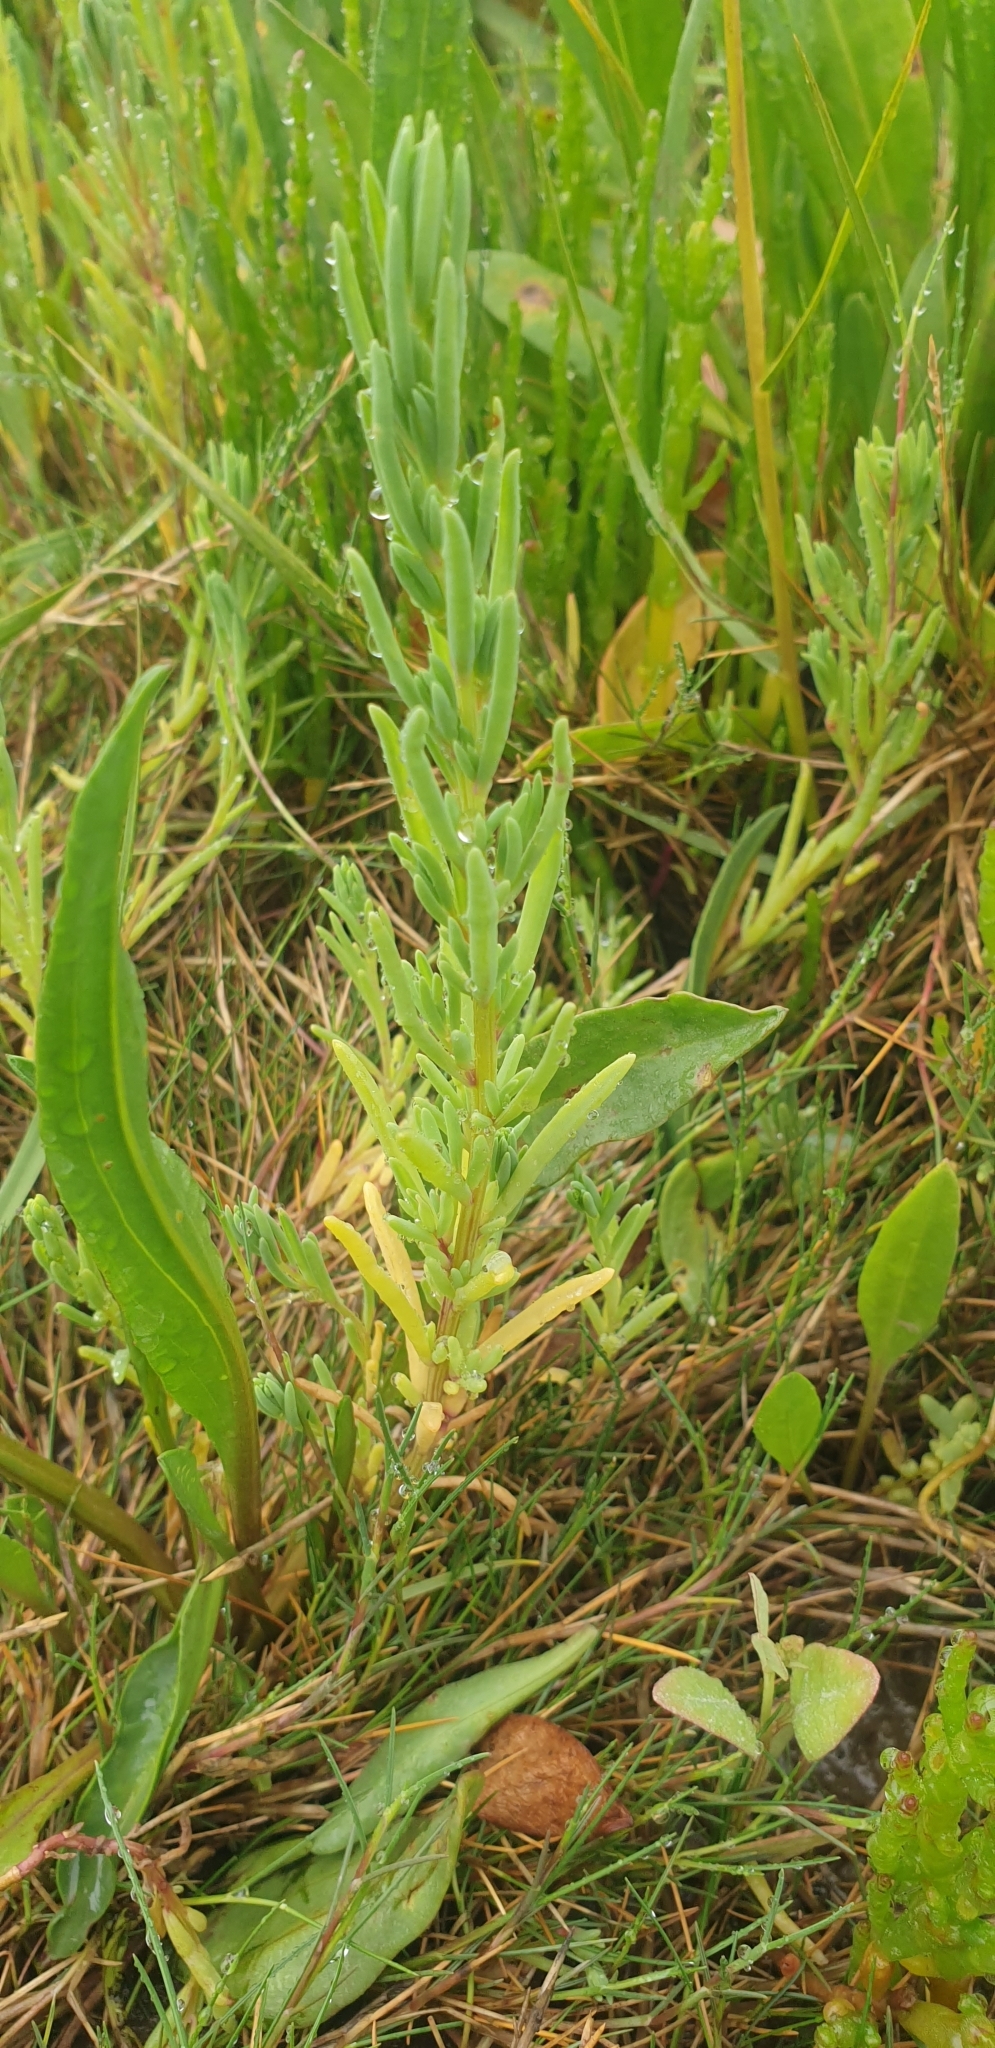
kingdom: Plantae
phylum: Tracheophyta
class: Magnoliopsida
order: Caryophyllales
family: Amaranthaceae
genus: Suaeda
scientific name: Suaeda maritima
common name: Annual sea-blite
